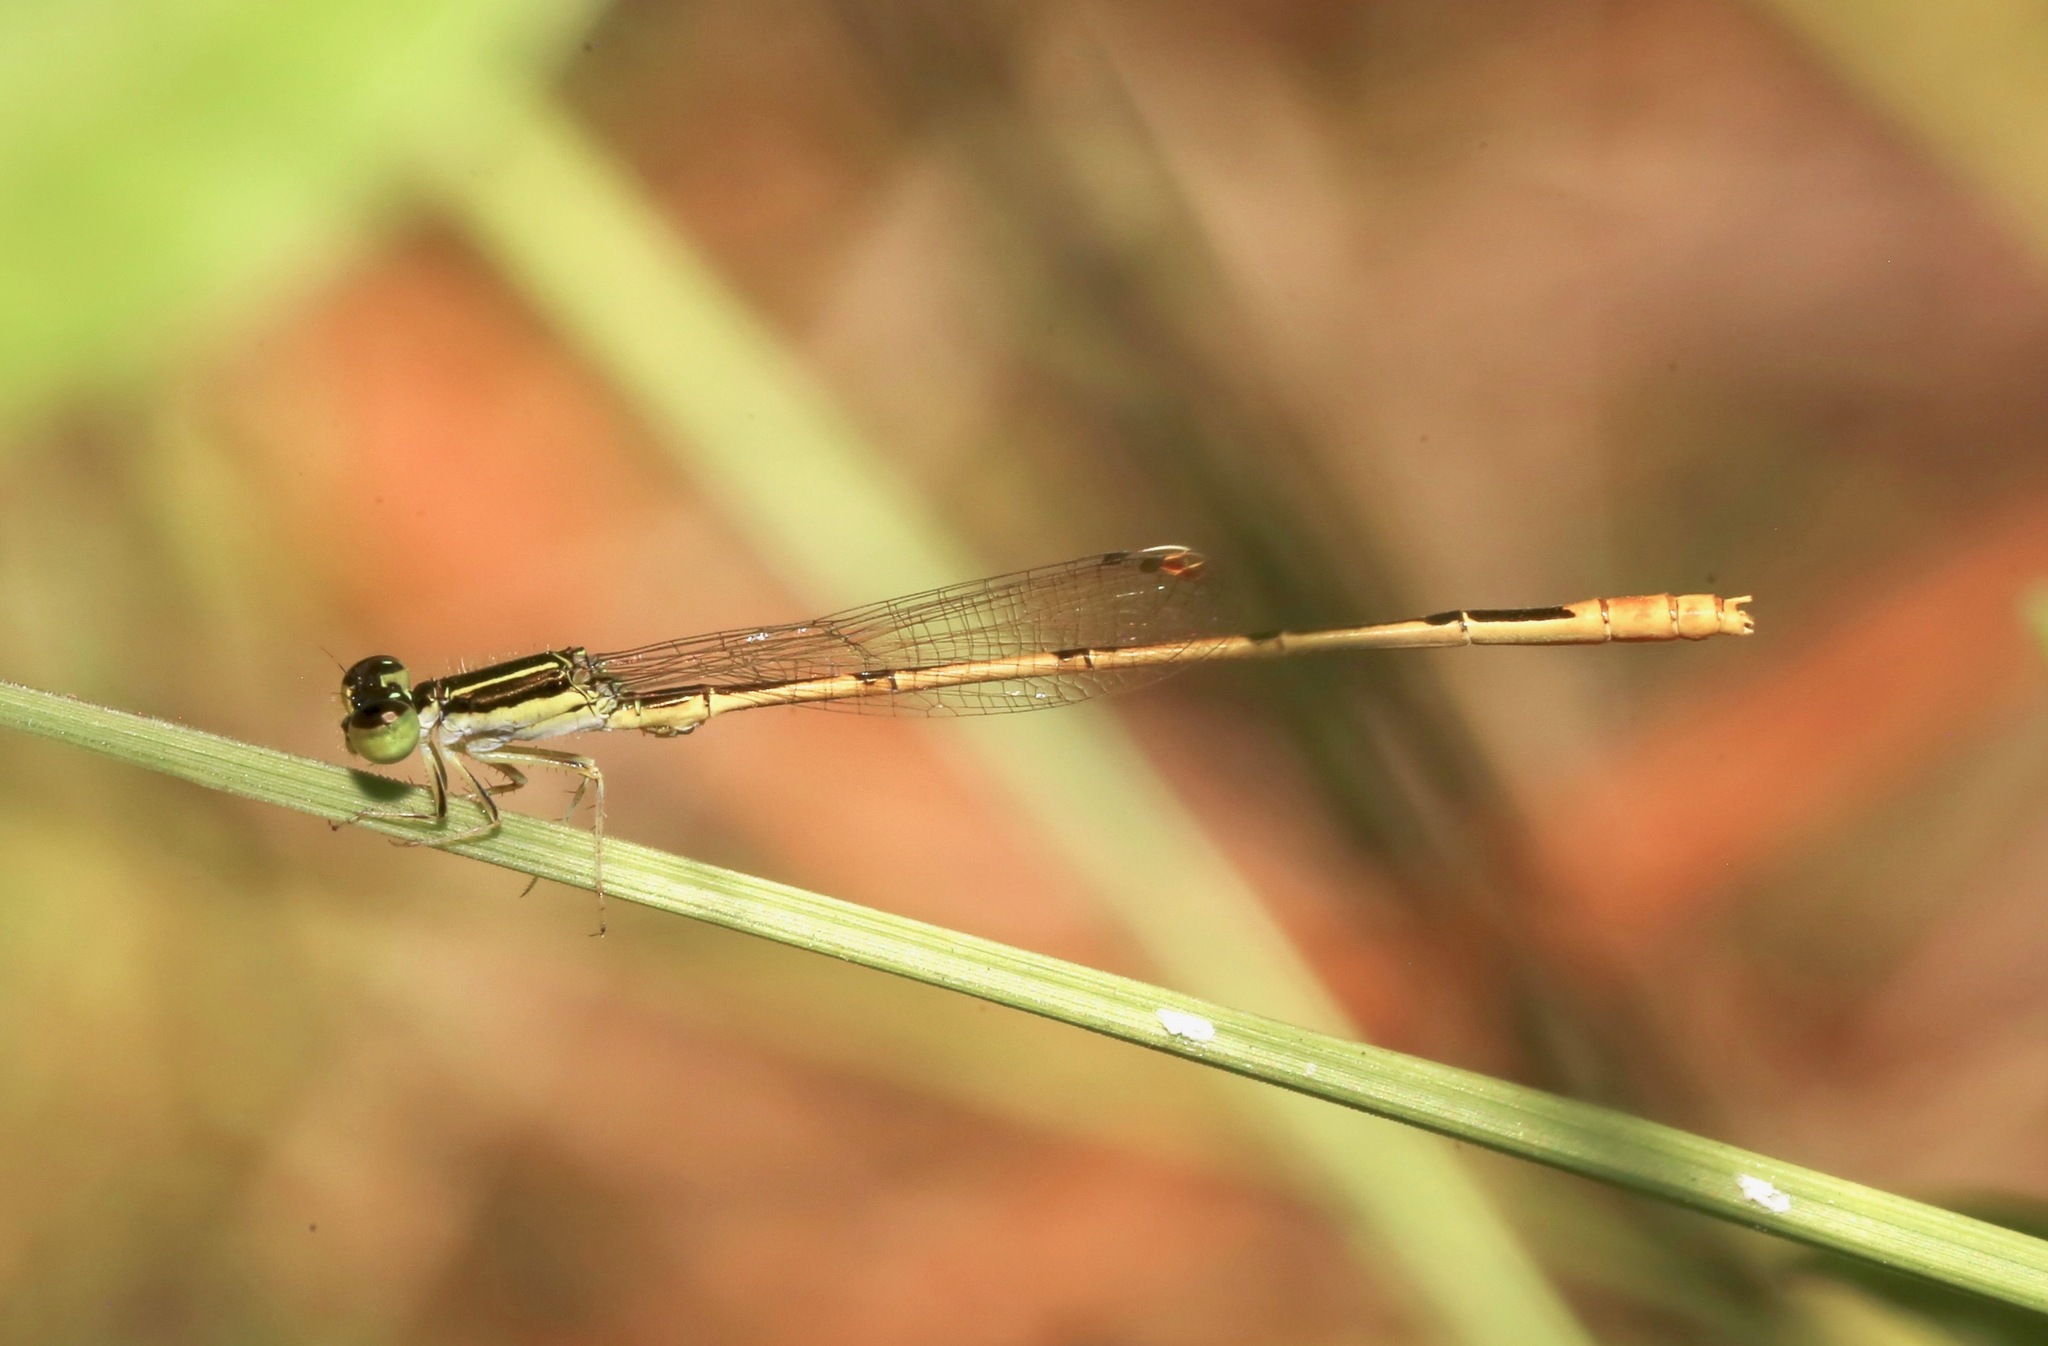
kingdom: Animalia
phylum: Arthropoda
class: Insecta
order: Odonata
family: Coenagrionidae
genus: Ischnura
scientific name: Ischnura hastata
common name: Citrine forktail
